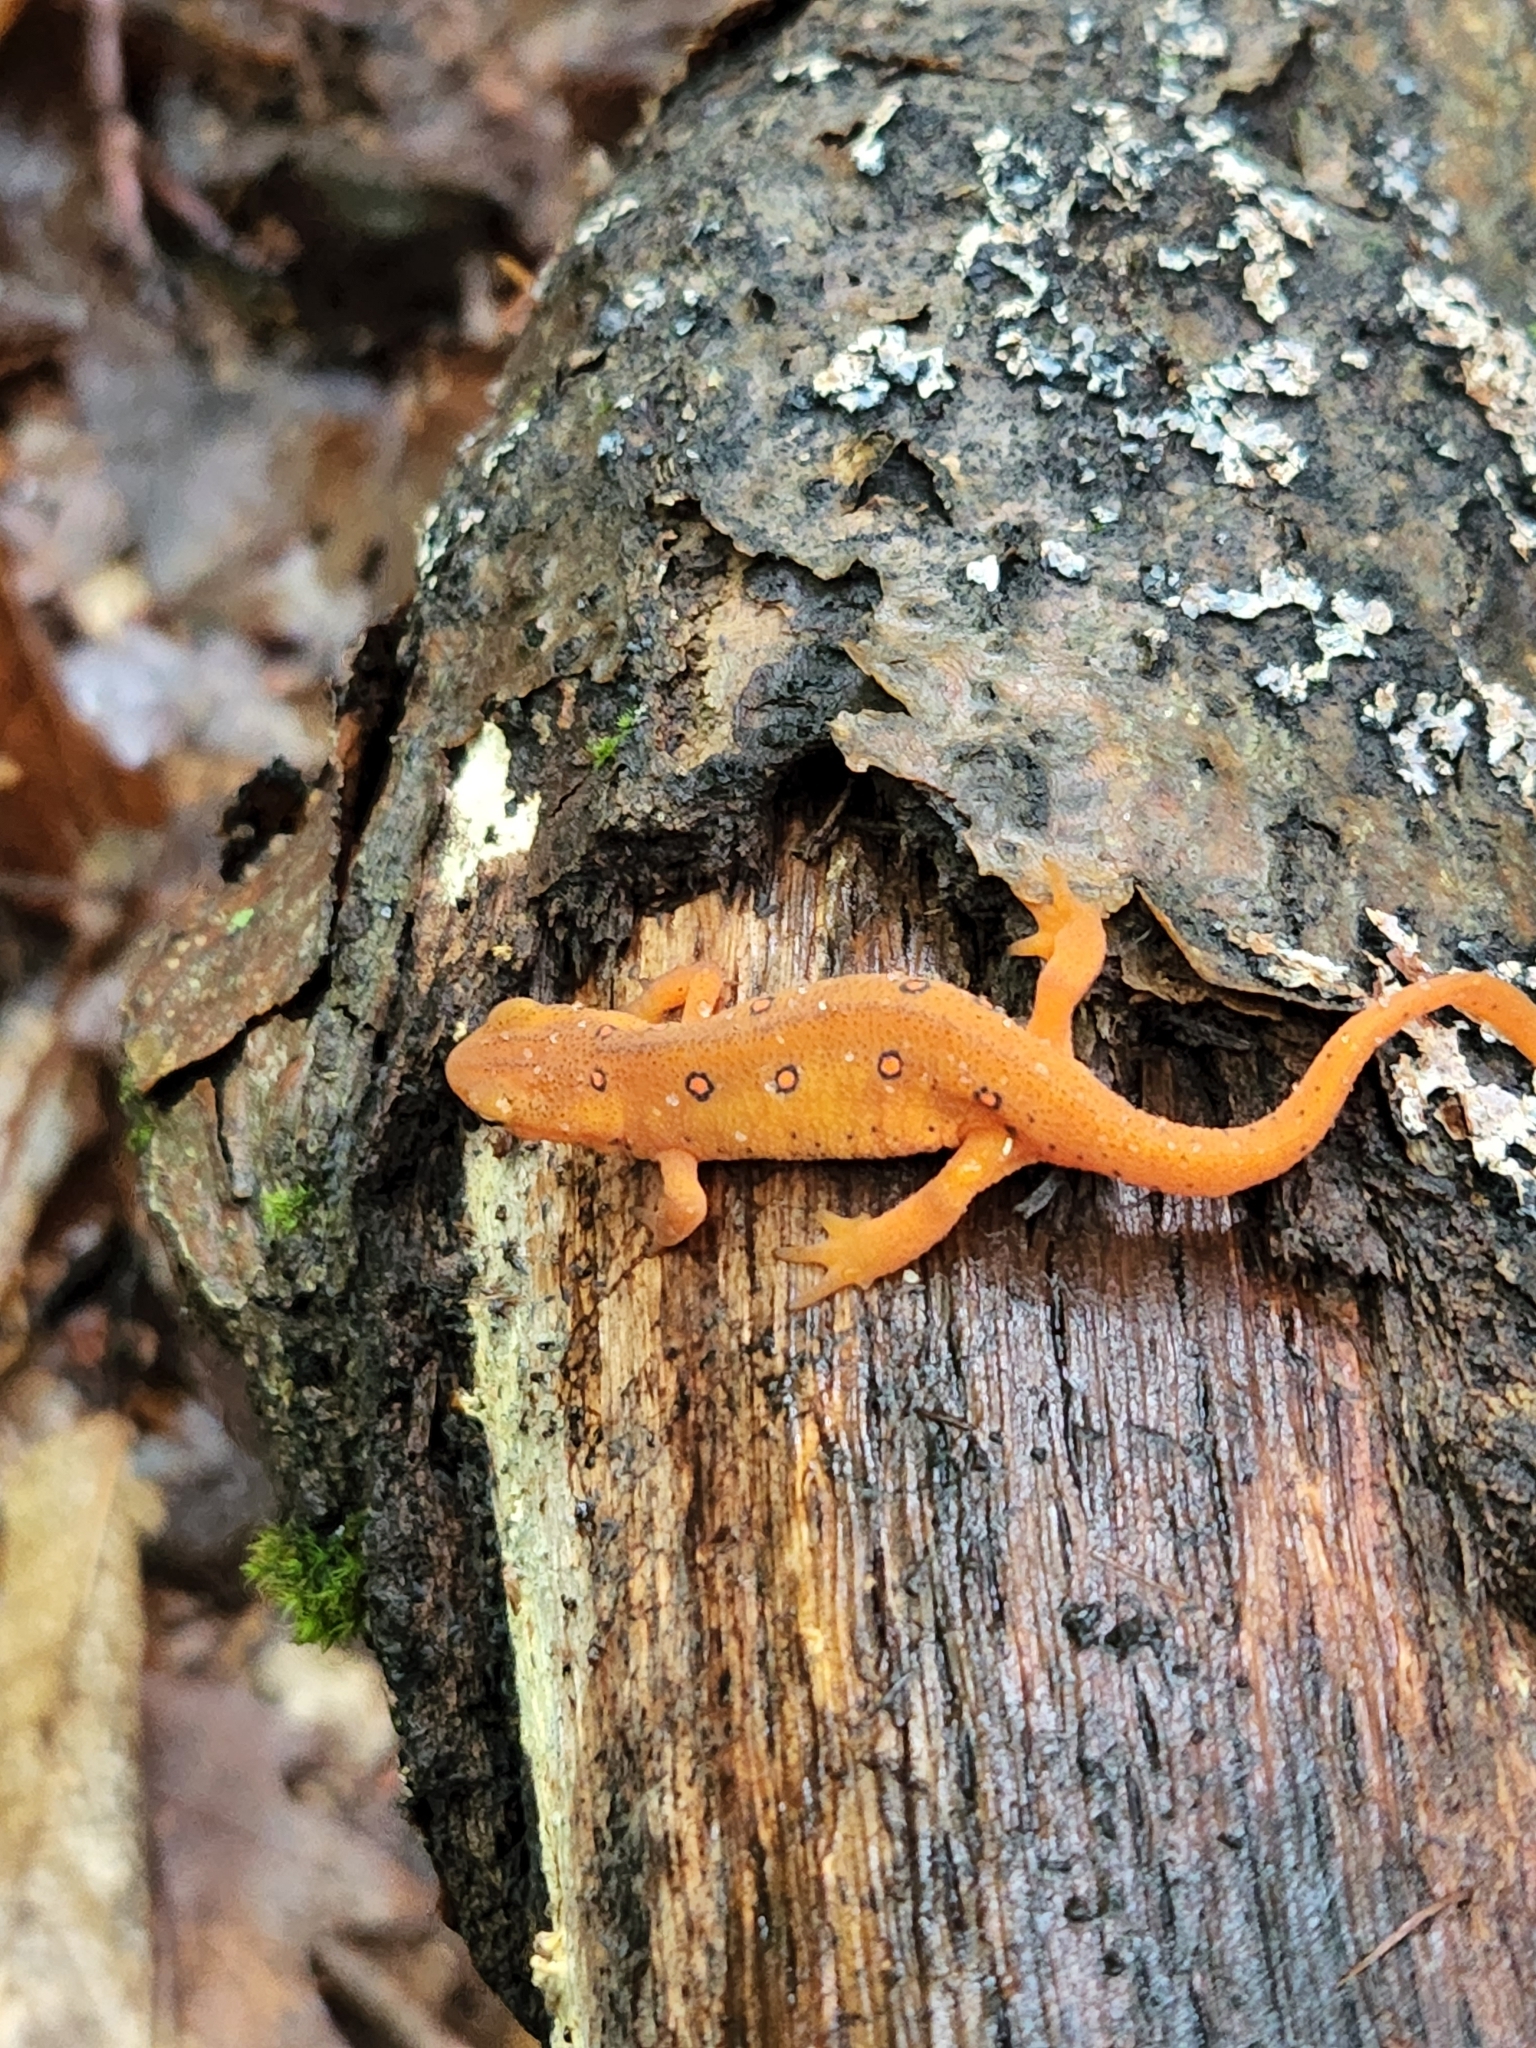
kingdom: Animalia
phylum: Chordata
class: Amphibia
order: Caudata
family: Salamandridae
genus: Notophthalmus
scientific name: Notophthalmus viridescens
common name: Eastern newt
